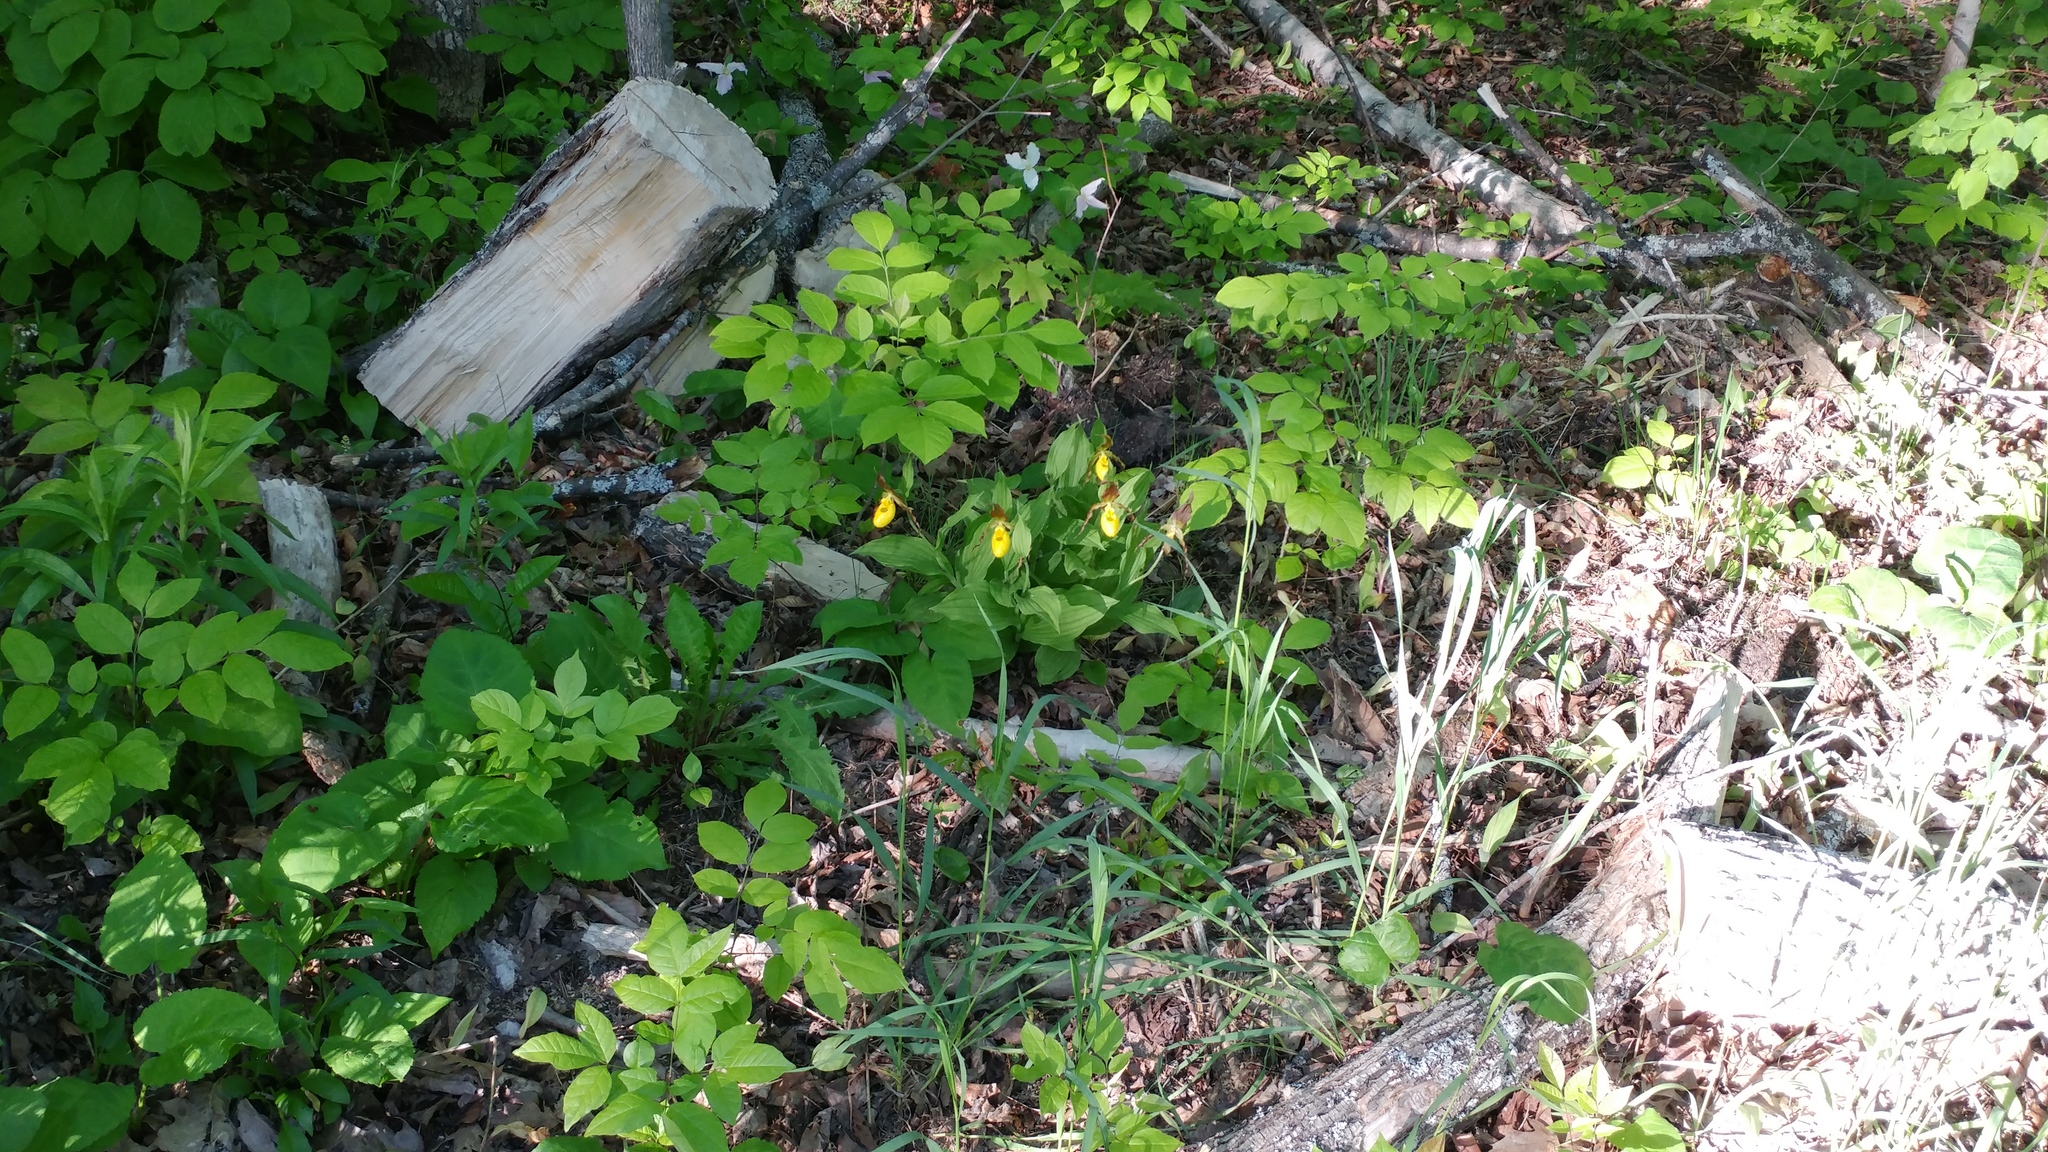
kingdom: Plantae
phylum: Tracheophyta
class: Liliopsida
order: Asparagales
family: Orchidaceae
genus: Cypripedium
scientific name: Cypripedium parviflorum
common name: American yellow lady's-slipper
